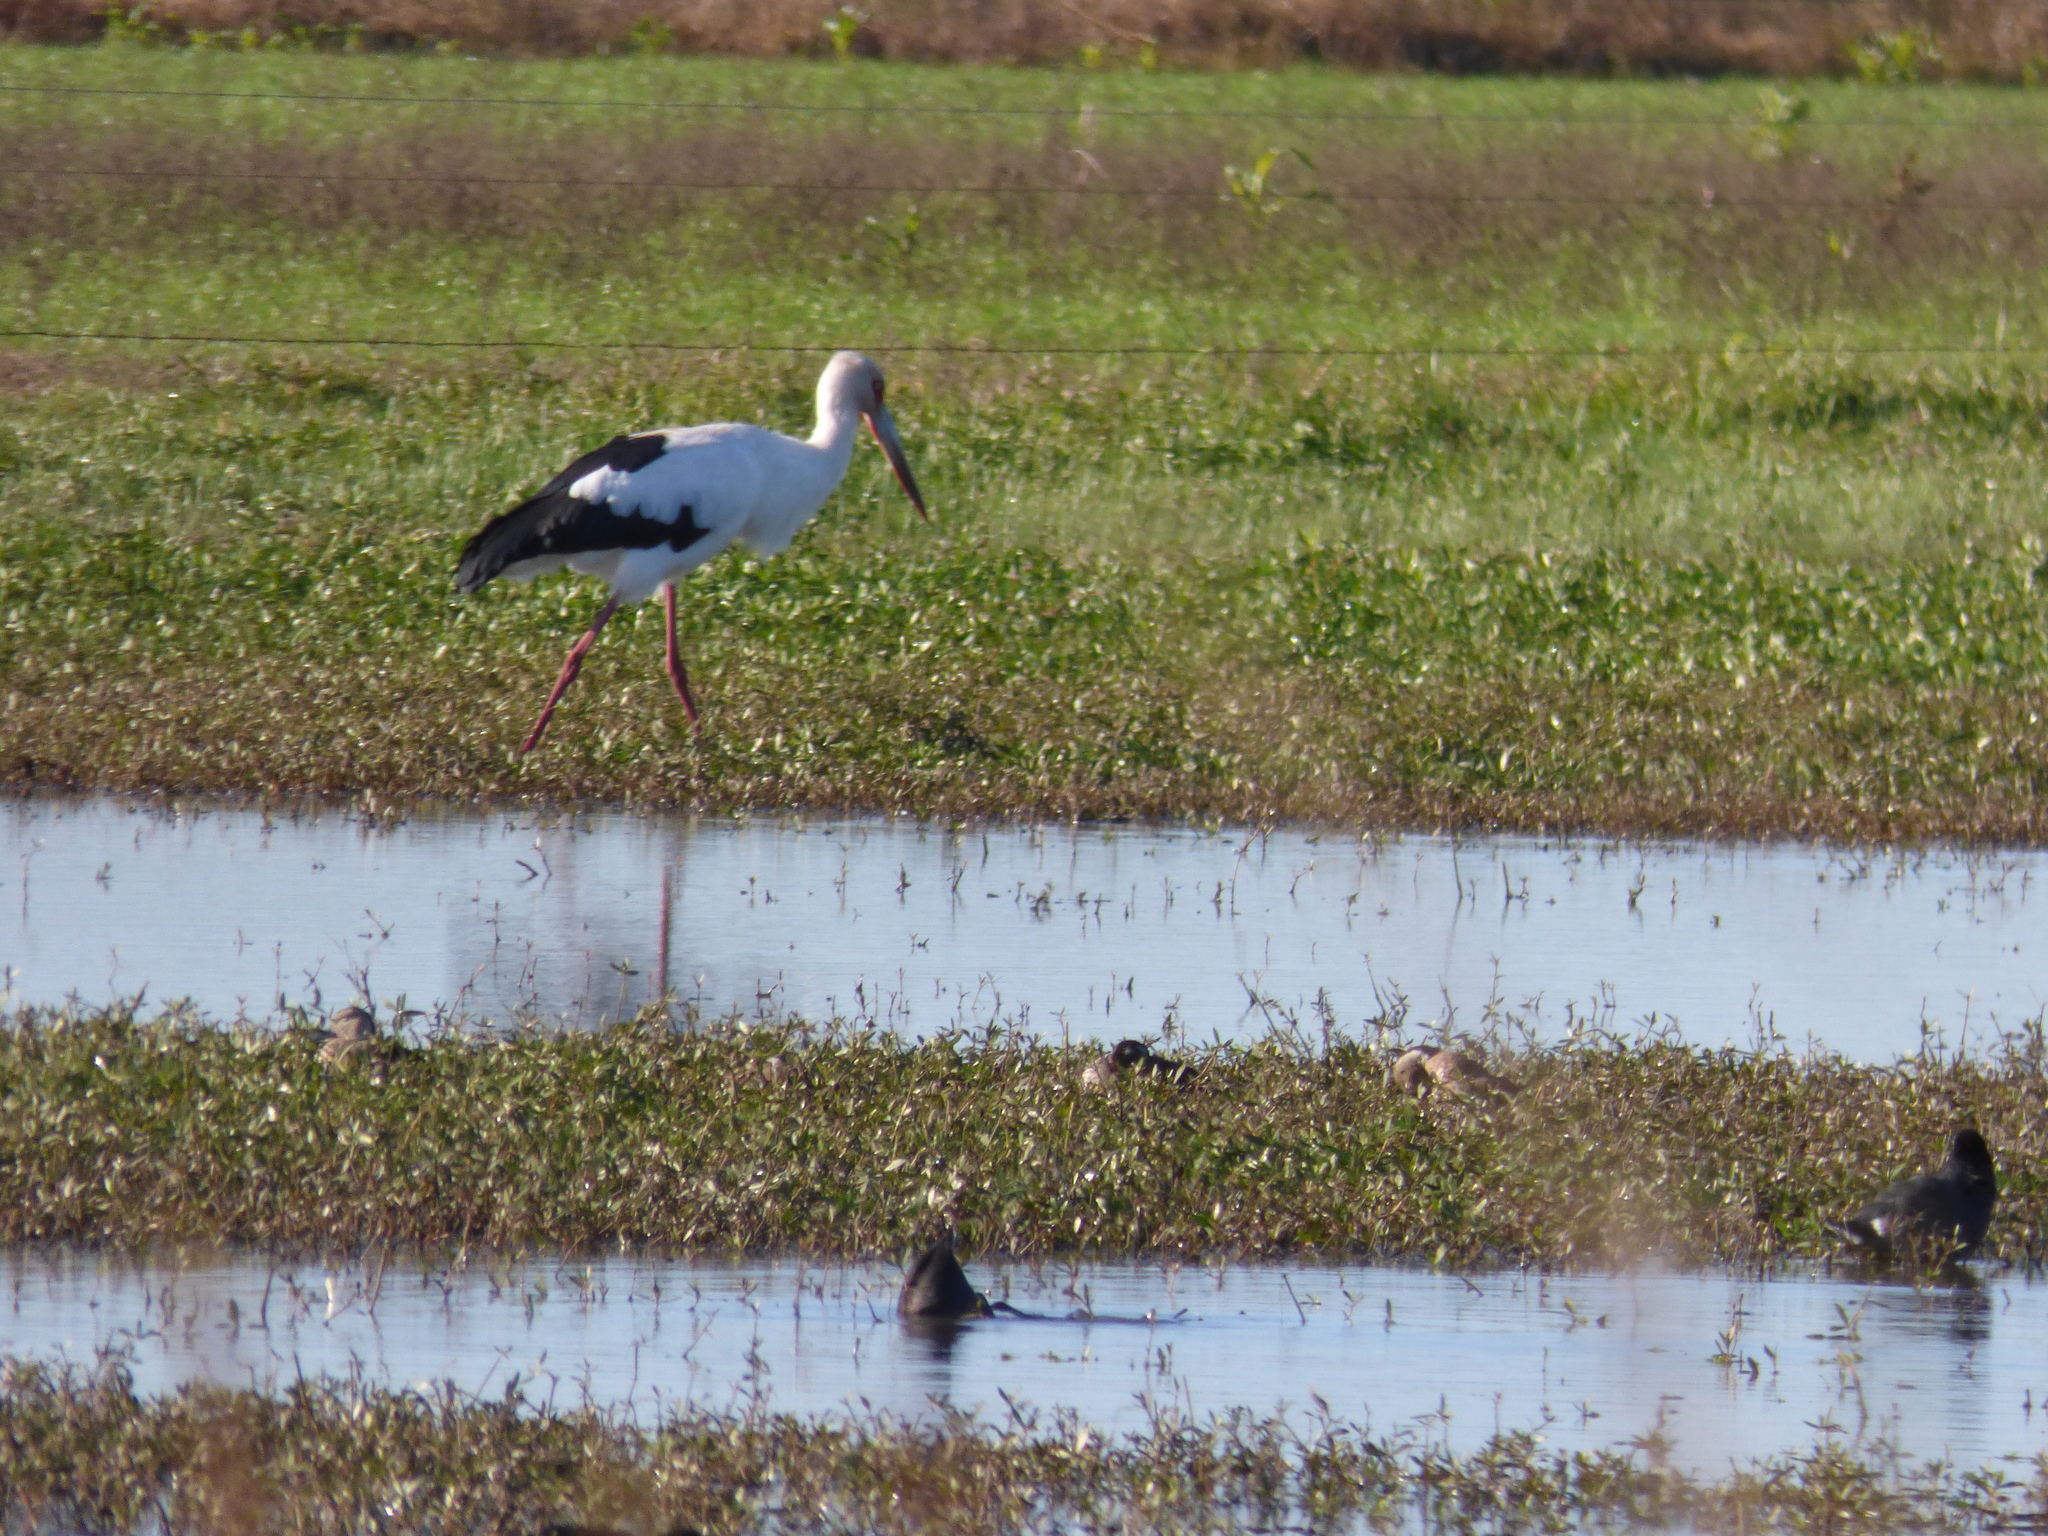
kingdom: Animalia
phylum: Chordata
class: Aves
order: Ciconiiformes
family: Ciconiidae
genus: Ciconia
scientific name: Ciconia maguari
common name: Maguari stork
